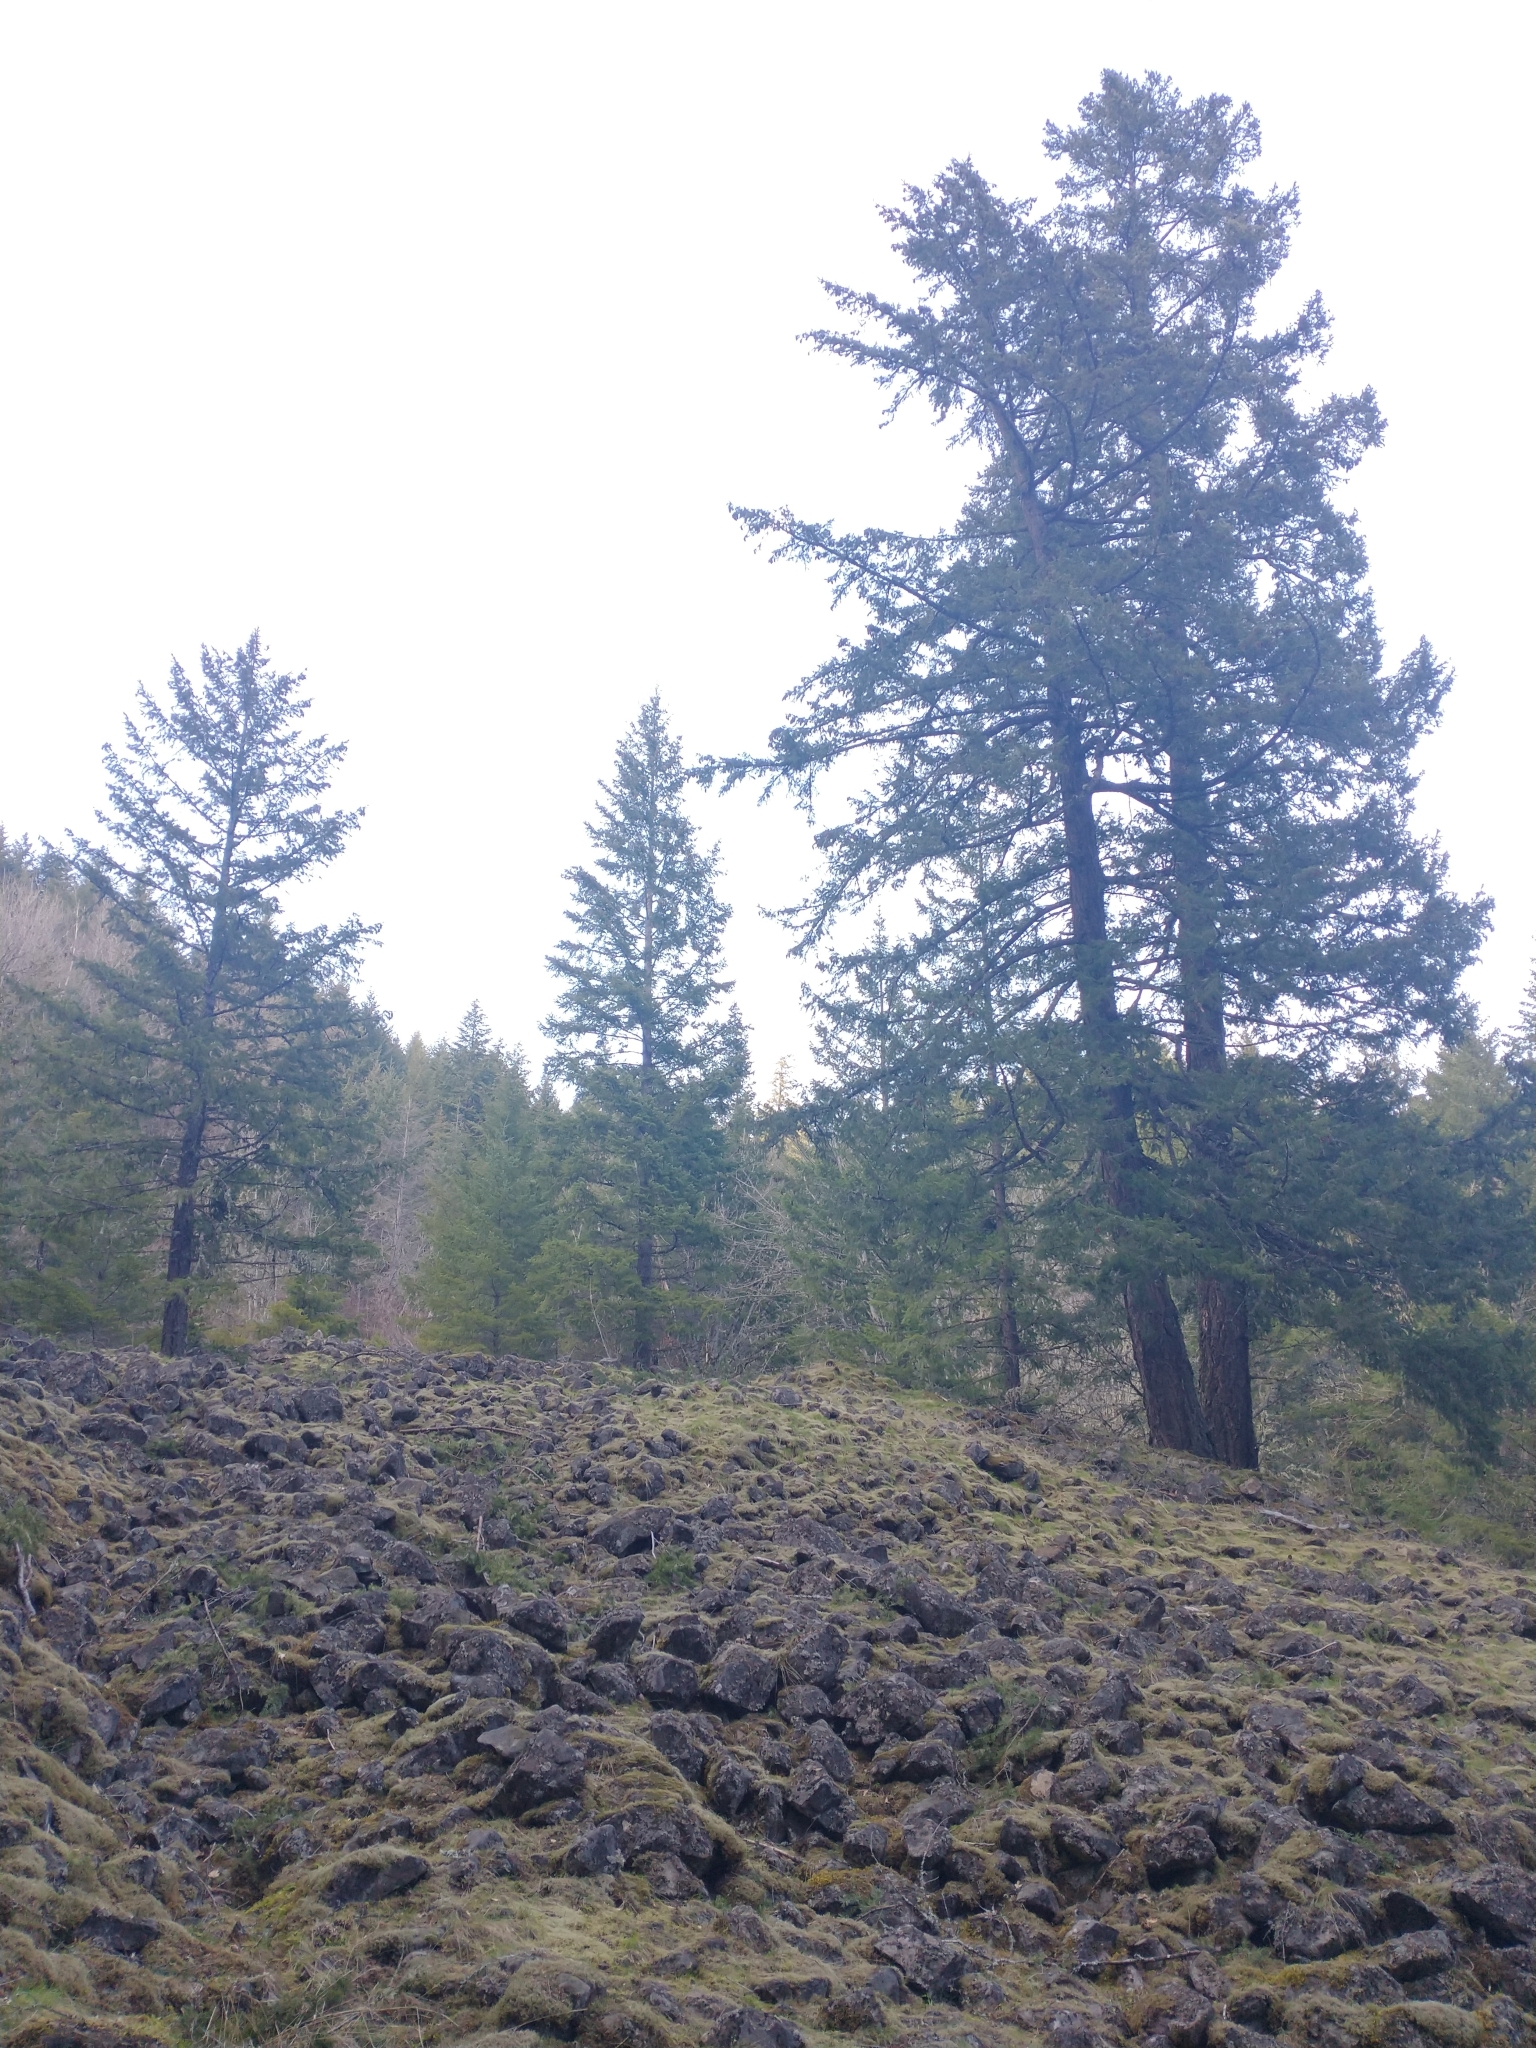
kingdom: Plantae
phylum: Tracheophyta
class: Pinopsida
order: Pinales
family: Pinaceae
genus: Pseudotsuga
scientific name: Pseudotsuga menziesii
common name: Douglas fir
